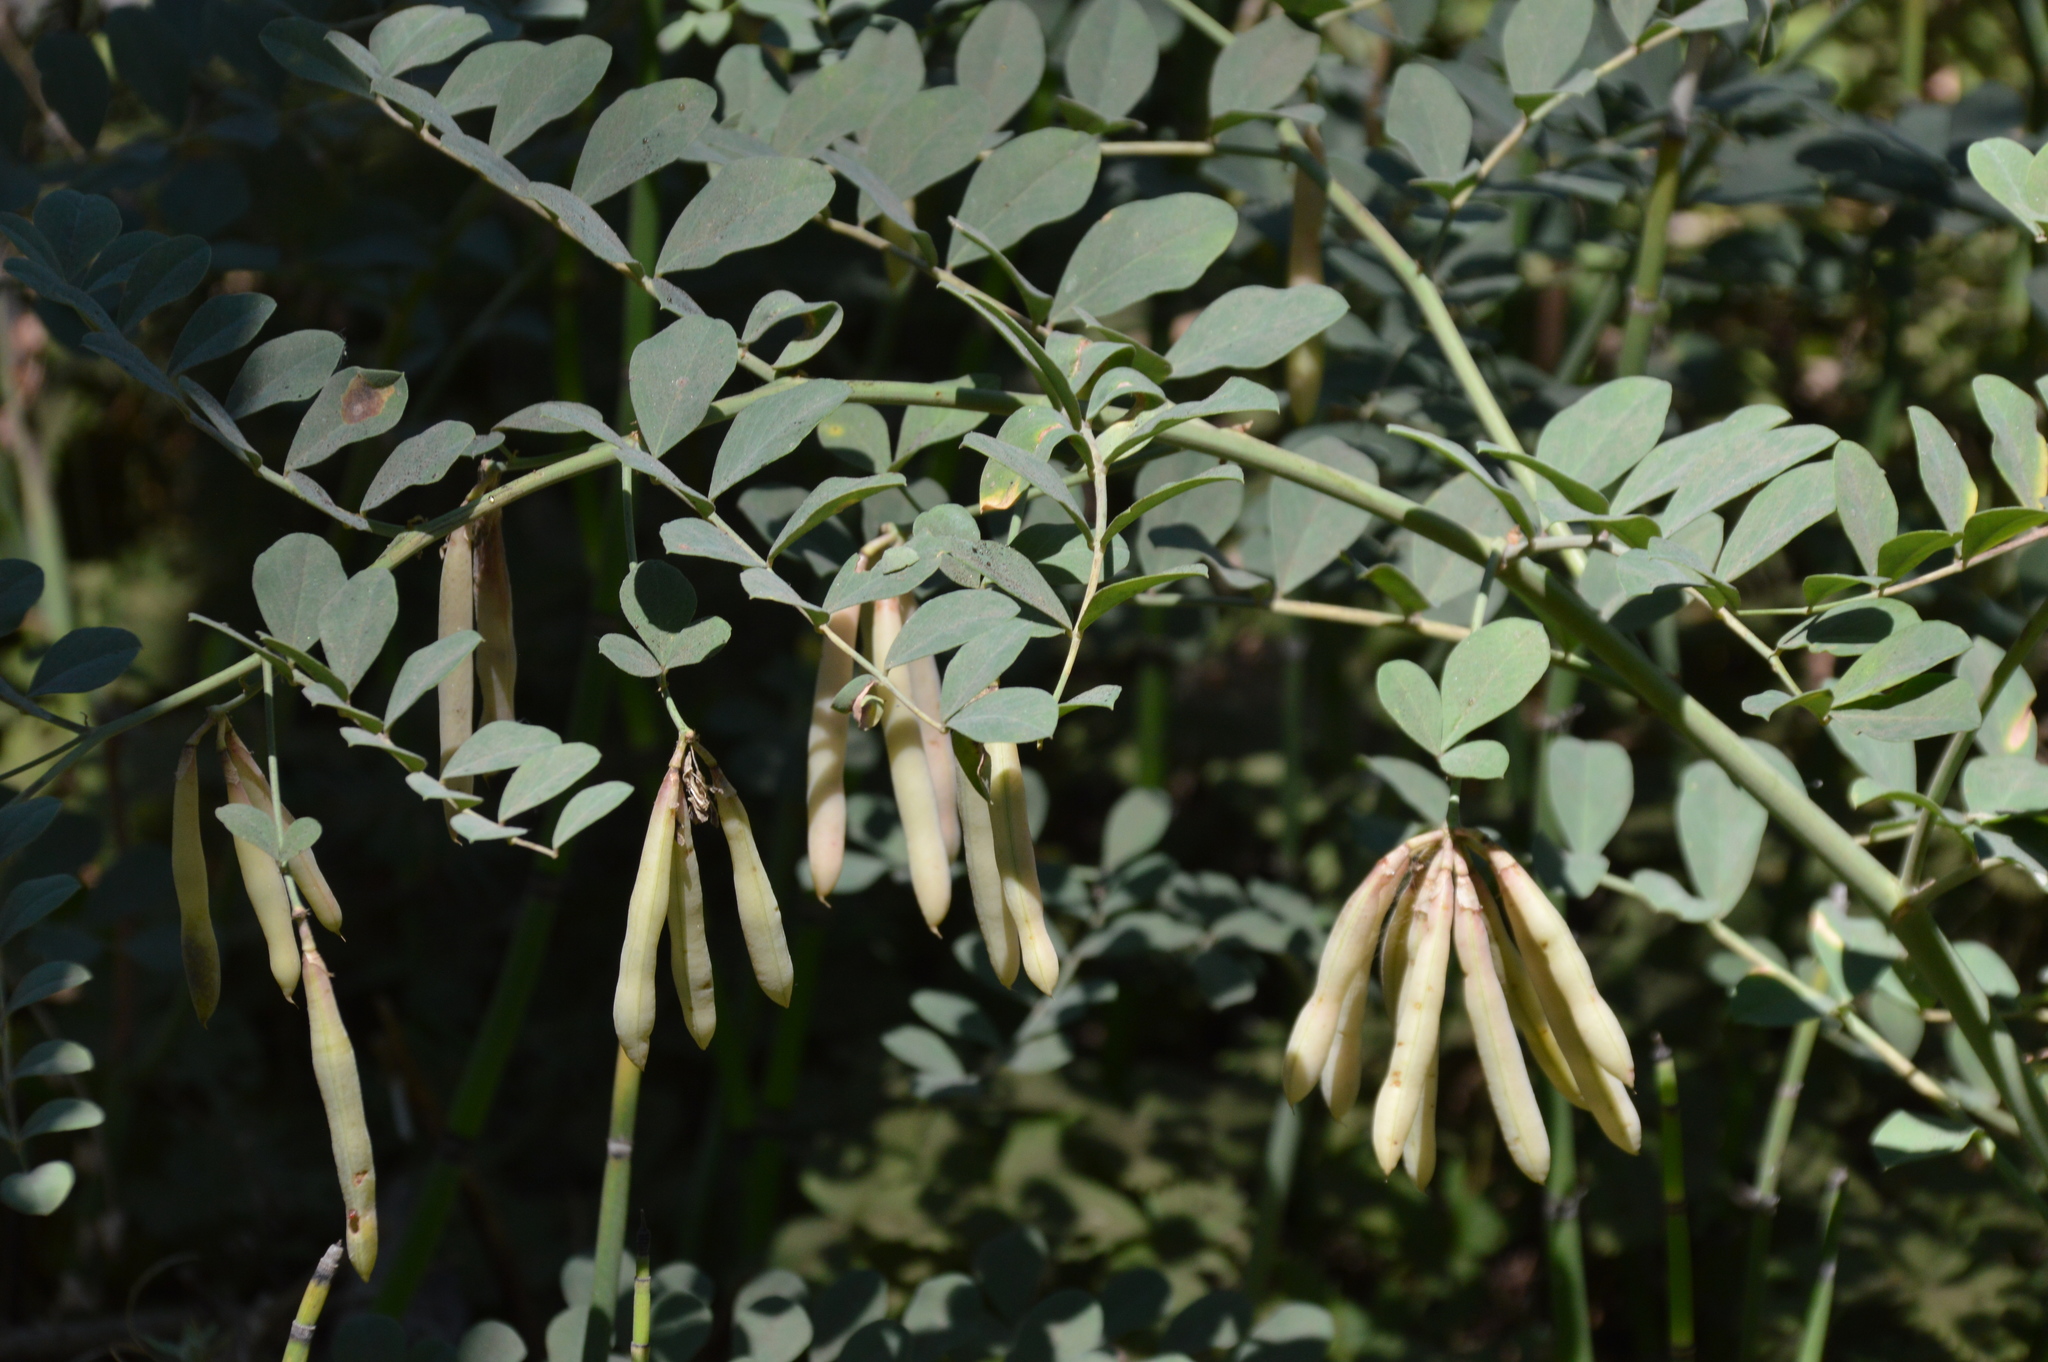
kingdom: Plantae
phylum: Tracheophyta
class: Magnoliopsida
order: Fabales
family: Fabaceae
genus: Hosackia
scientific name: Hosackia crassifolia
